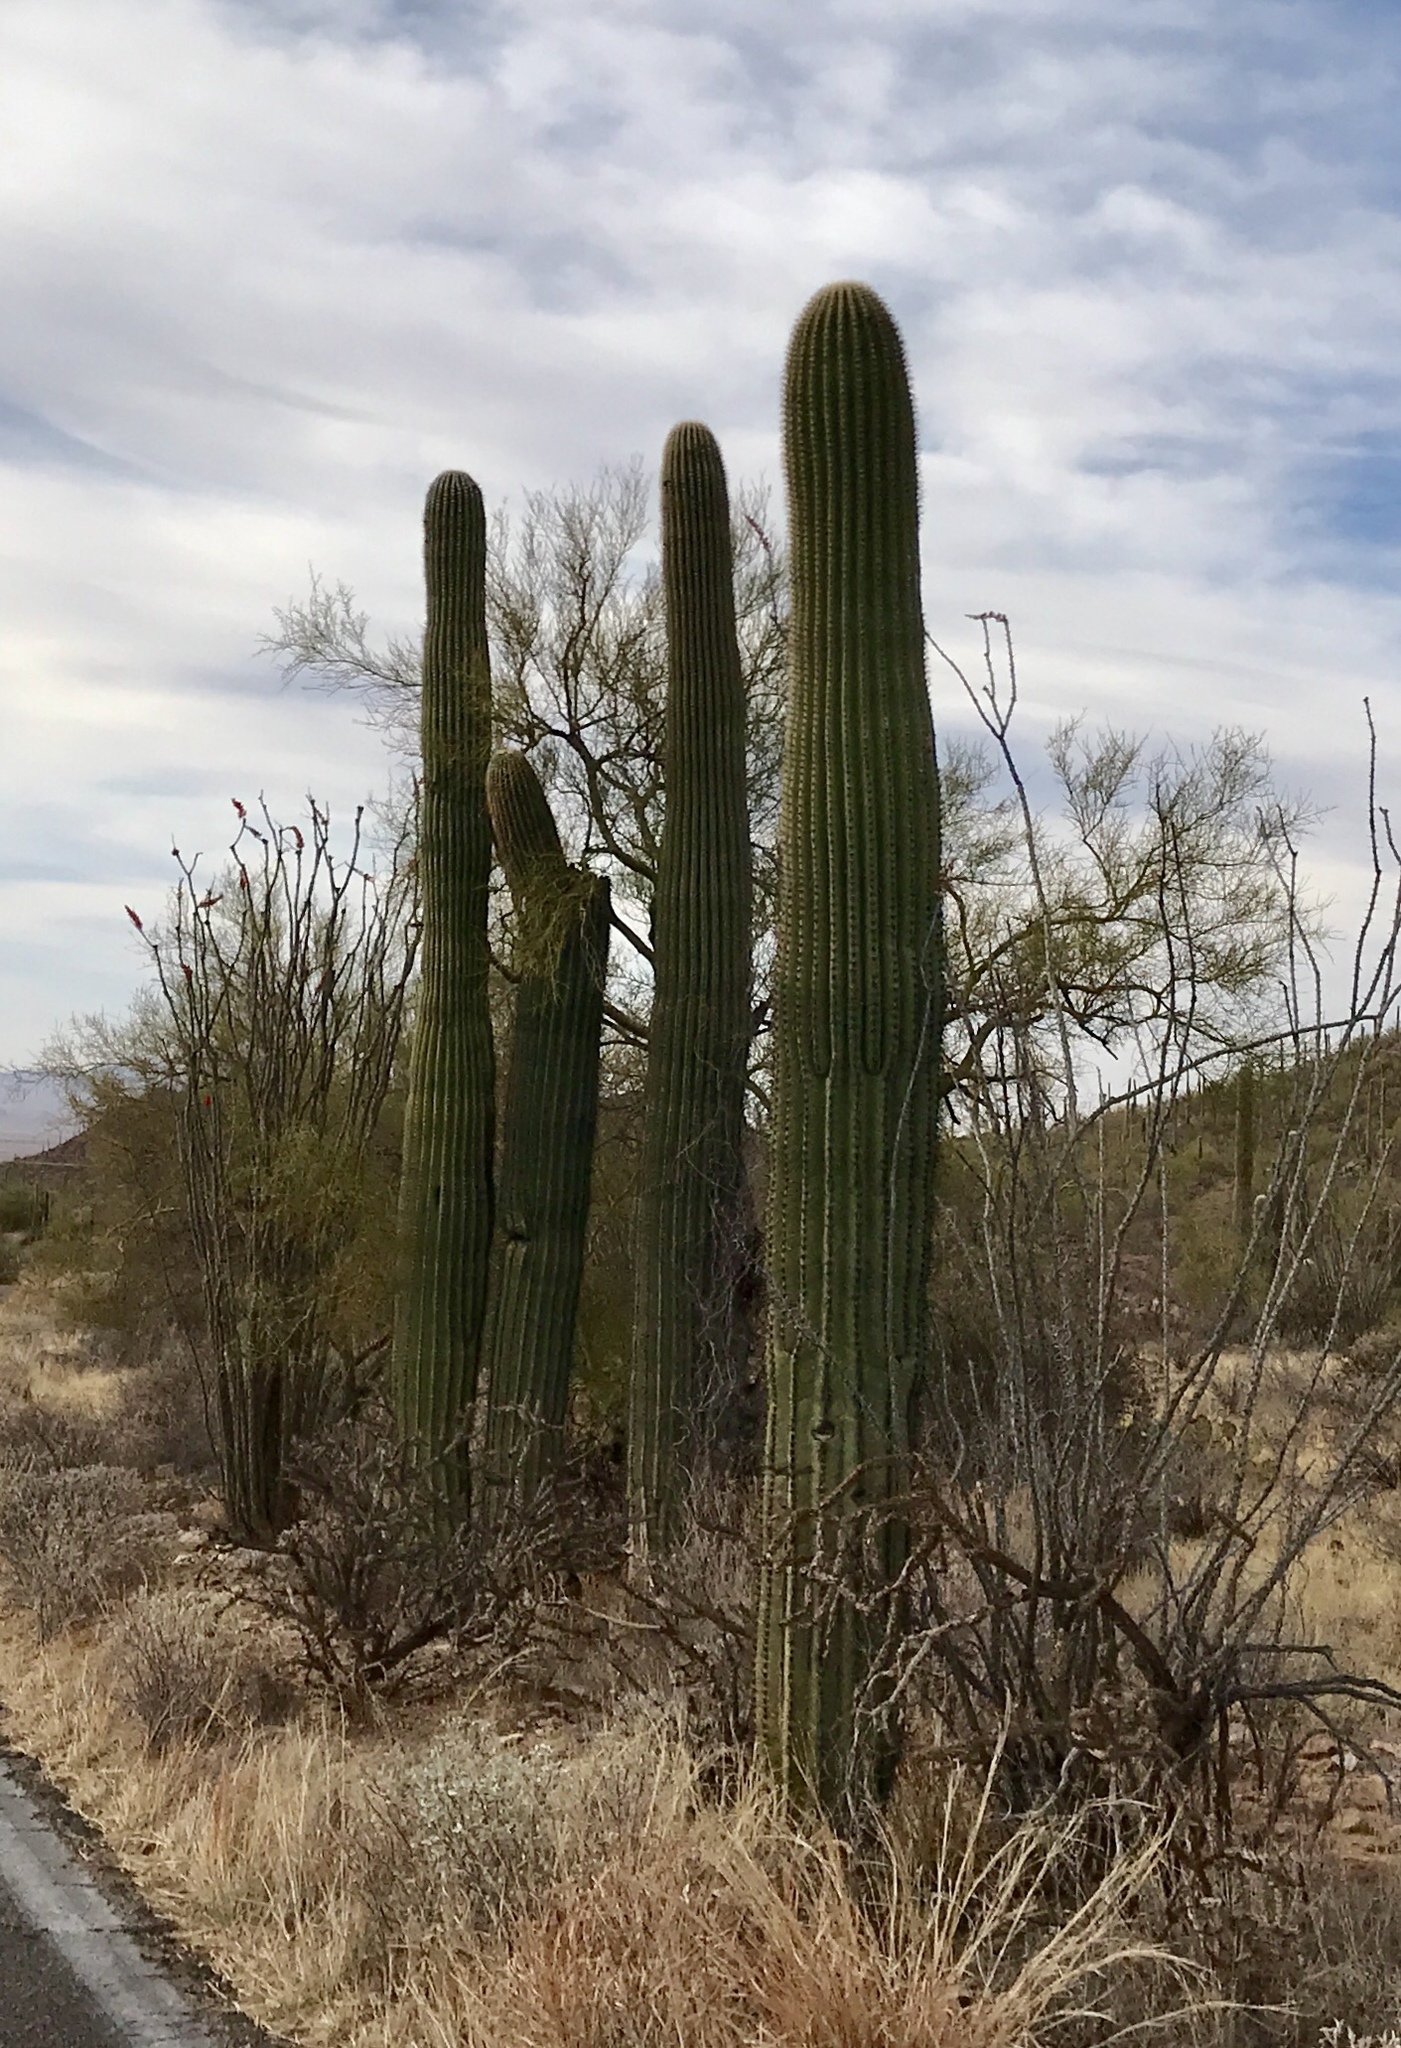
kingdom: Plantae
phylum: Tracheophyta
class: Magnoliopsida
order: Caryophyllales
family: Cactaceae
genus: Carnegiea
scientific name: Carnegiea gigantea
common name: Saguaro
